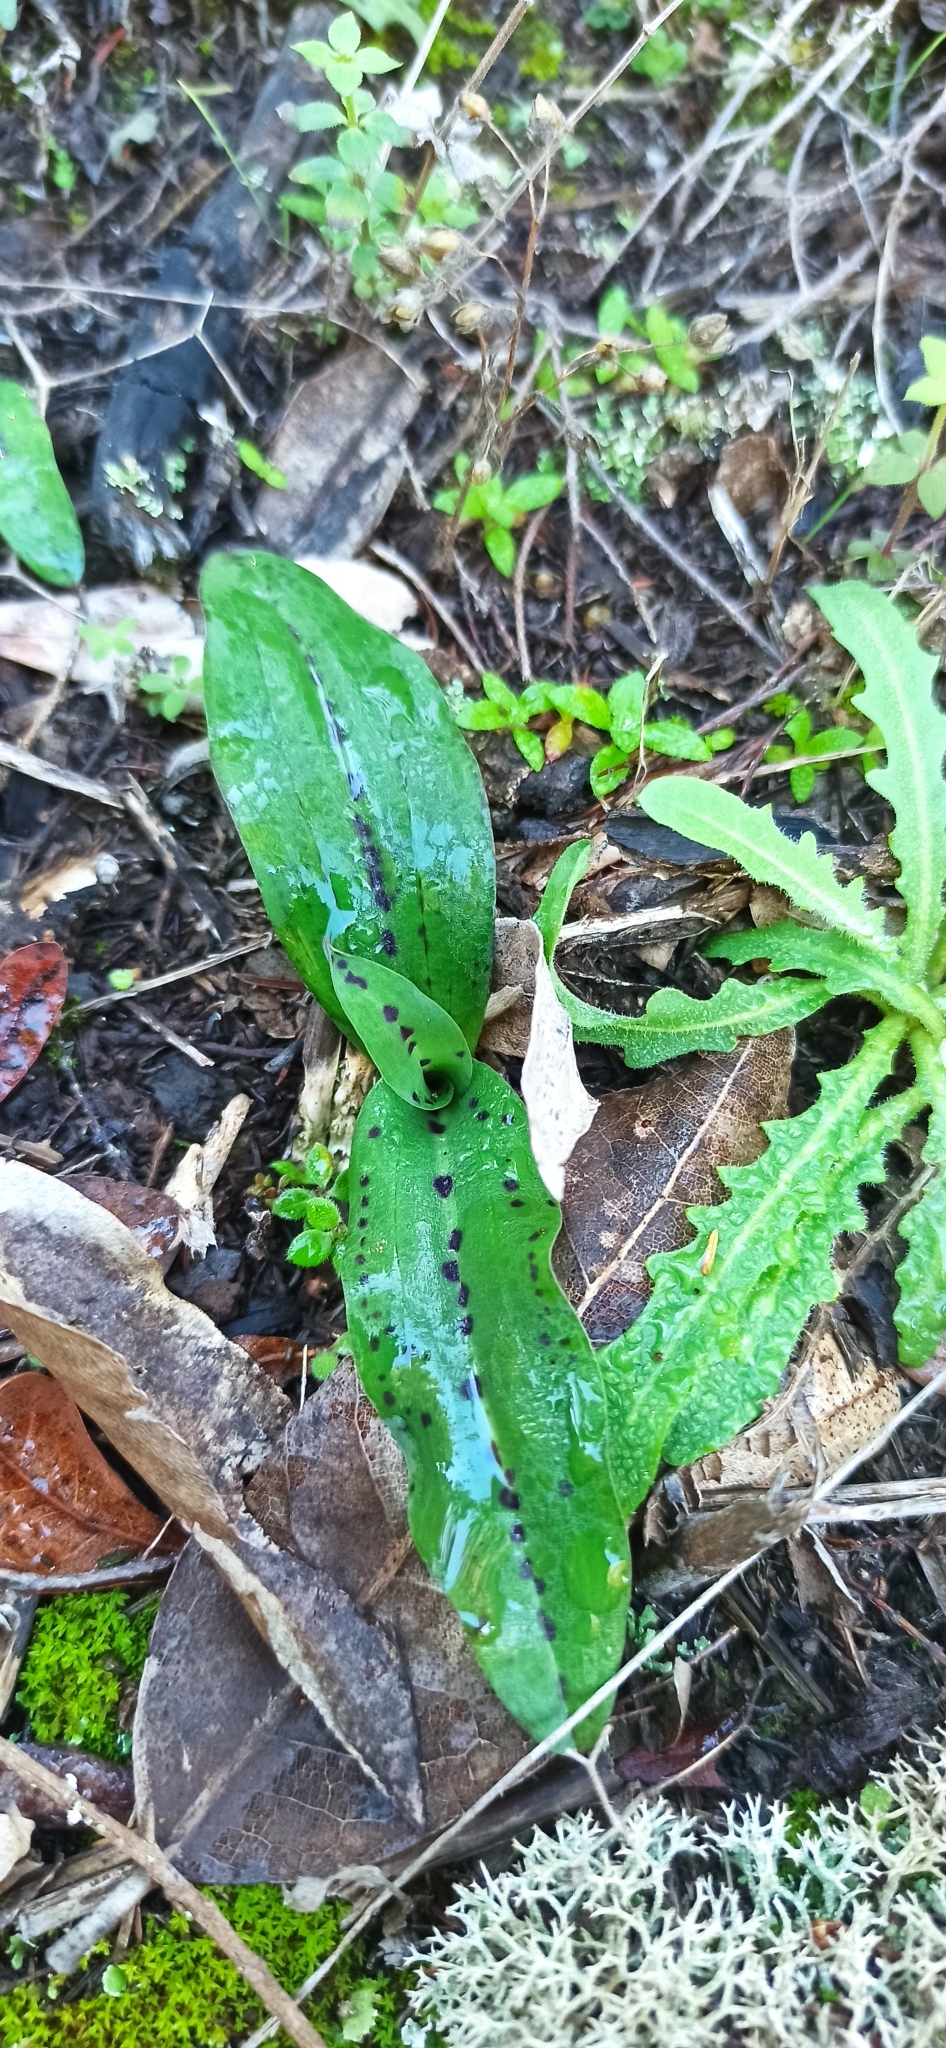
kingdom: Plantae
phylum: Tracheophyta
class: Liliopsida
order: Asparagales
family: Orchidaceae
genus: Neotinea
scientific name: Neotinea maculata
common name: Dense-flowered orchid
